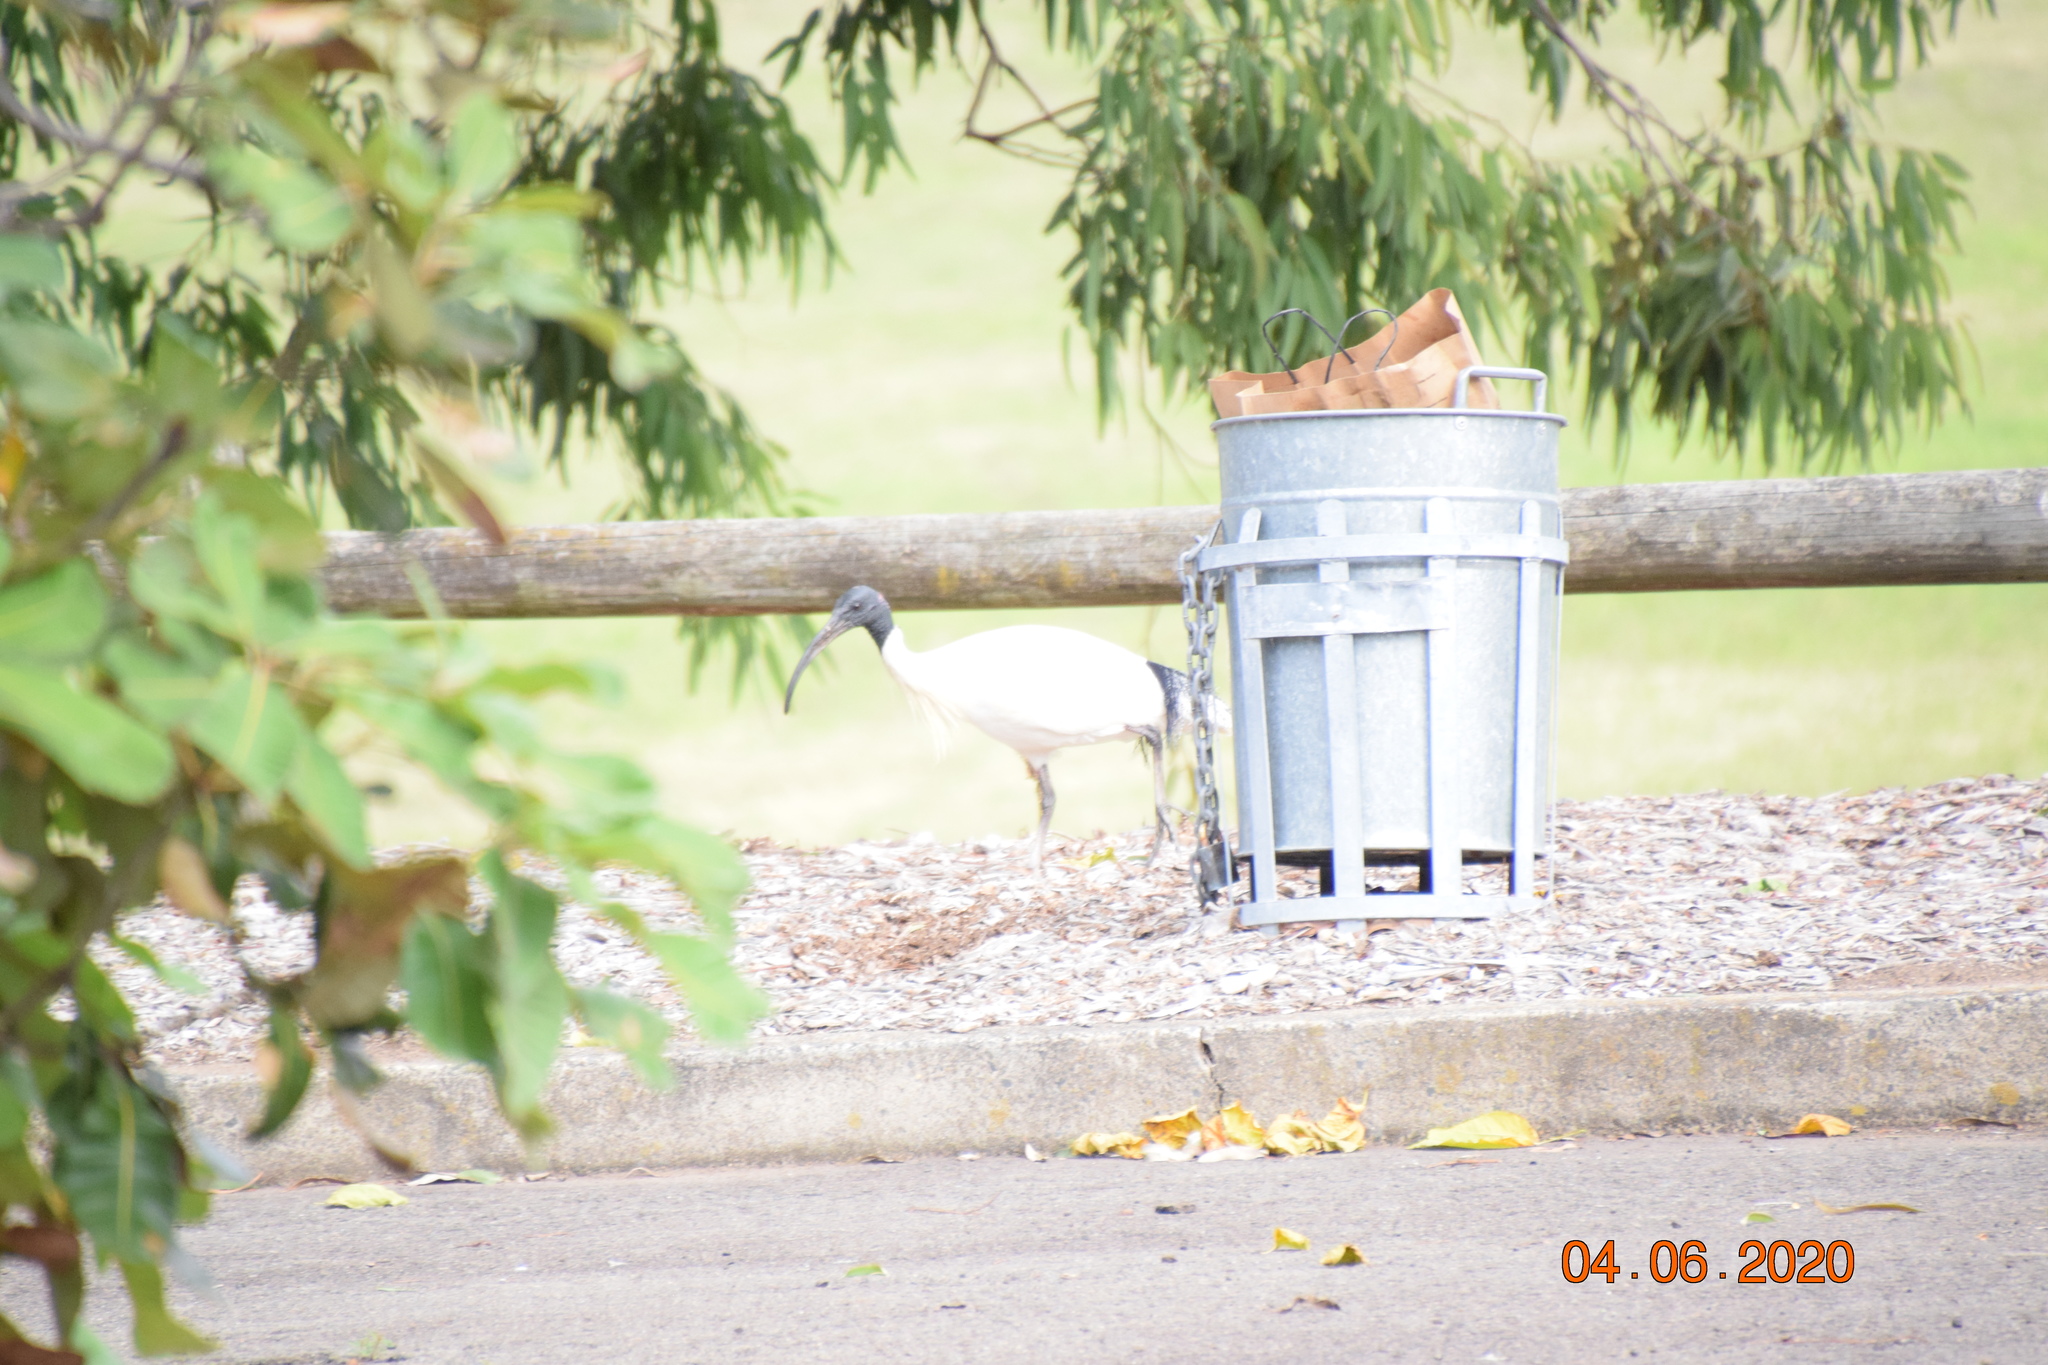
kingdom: Animalia
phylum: Chordata
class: Aves
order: Pelecaniformes
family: Threskiornithidae
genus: Threskiornis
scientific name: Threskiornis molucca
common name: Australian white ibis
